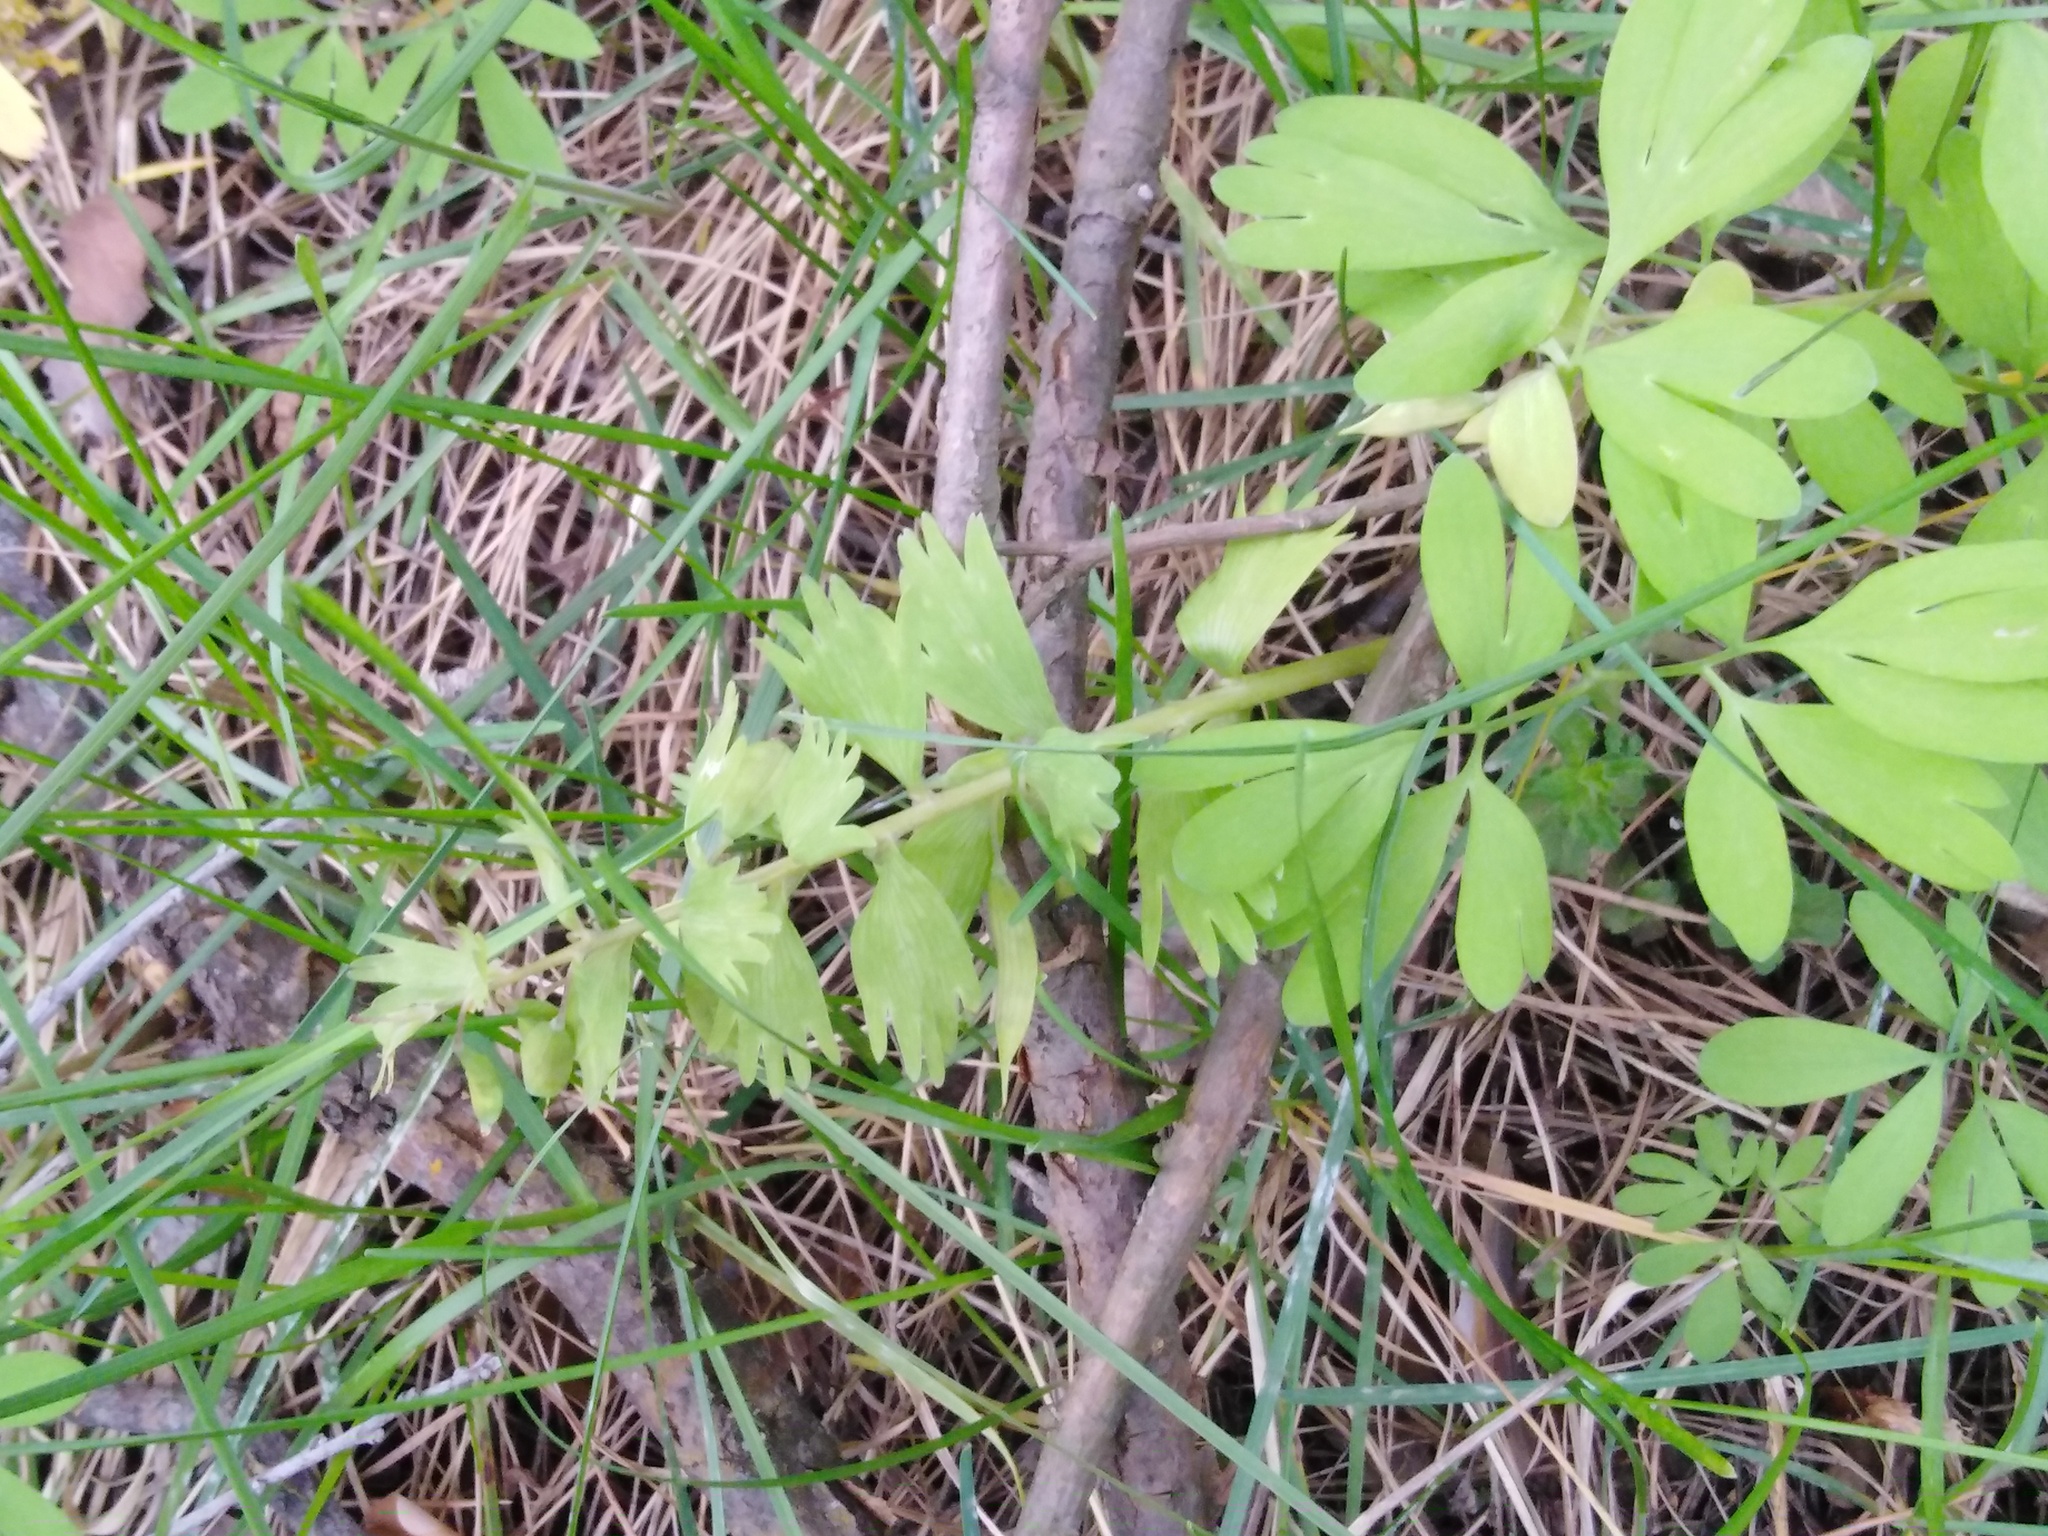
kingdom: Plantae
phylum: Tracheophyta
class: Magnoliopsida
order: Ranunculales
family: Papaveraceae
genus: Corydalis
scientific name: Corydalis solida
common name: Bird-in-a-bush
